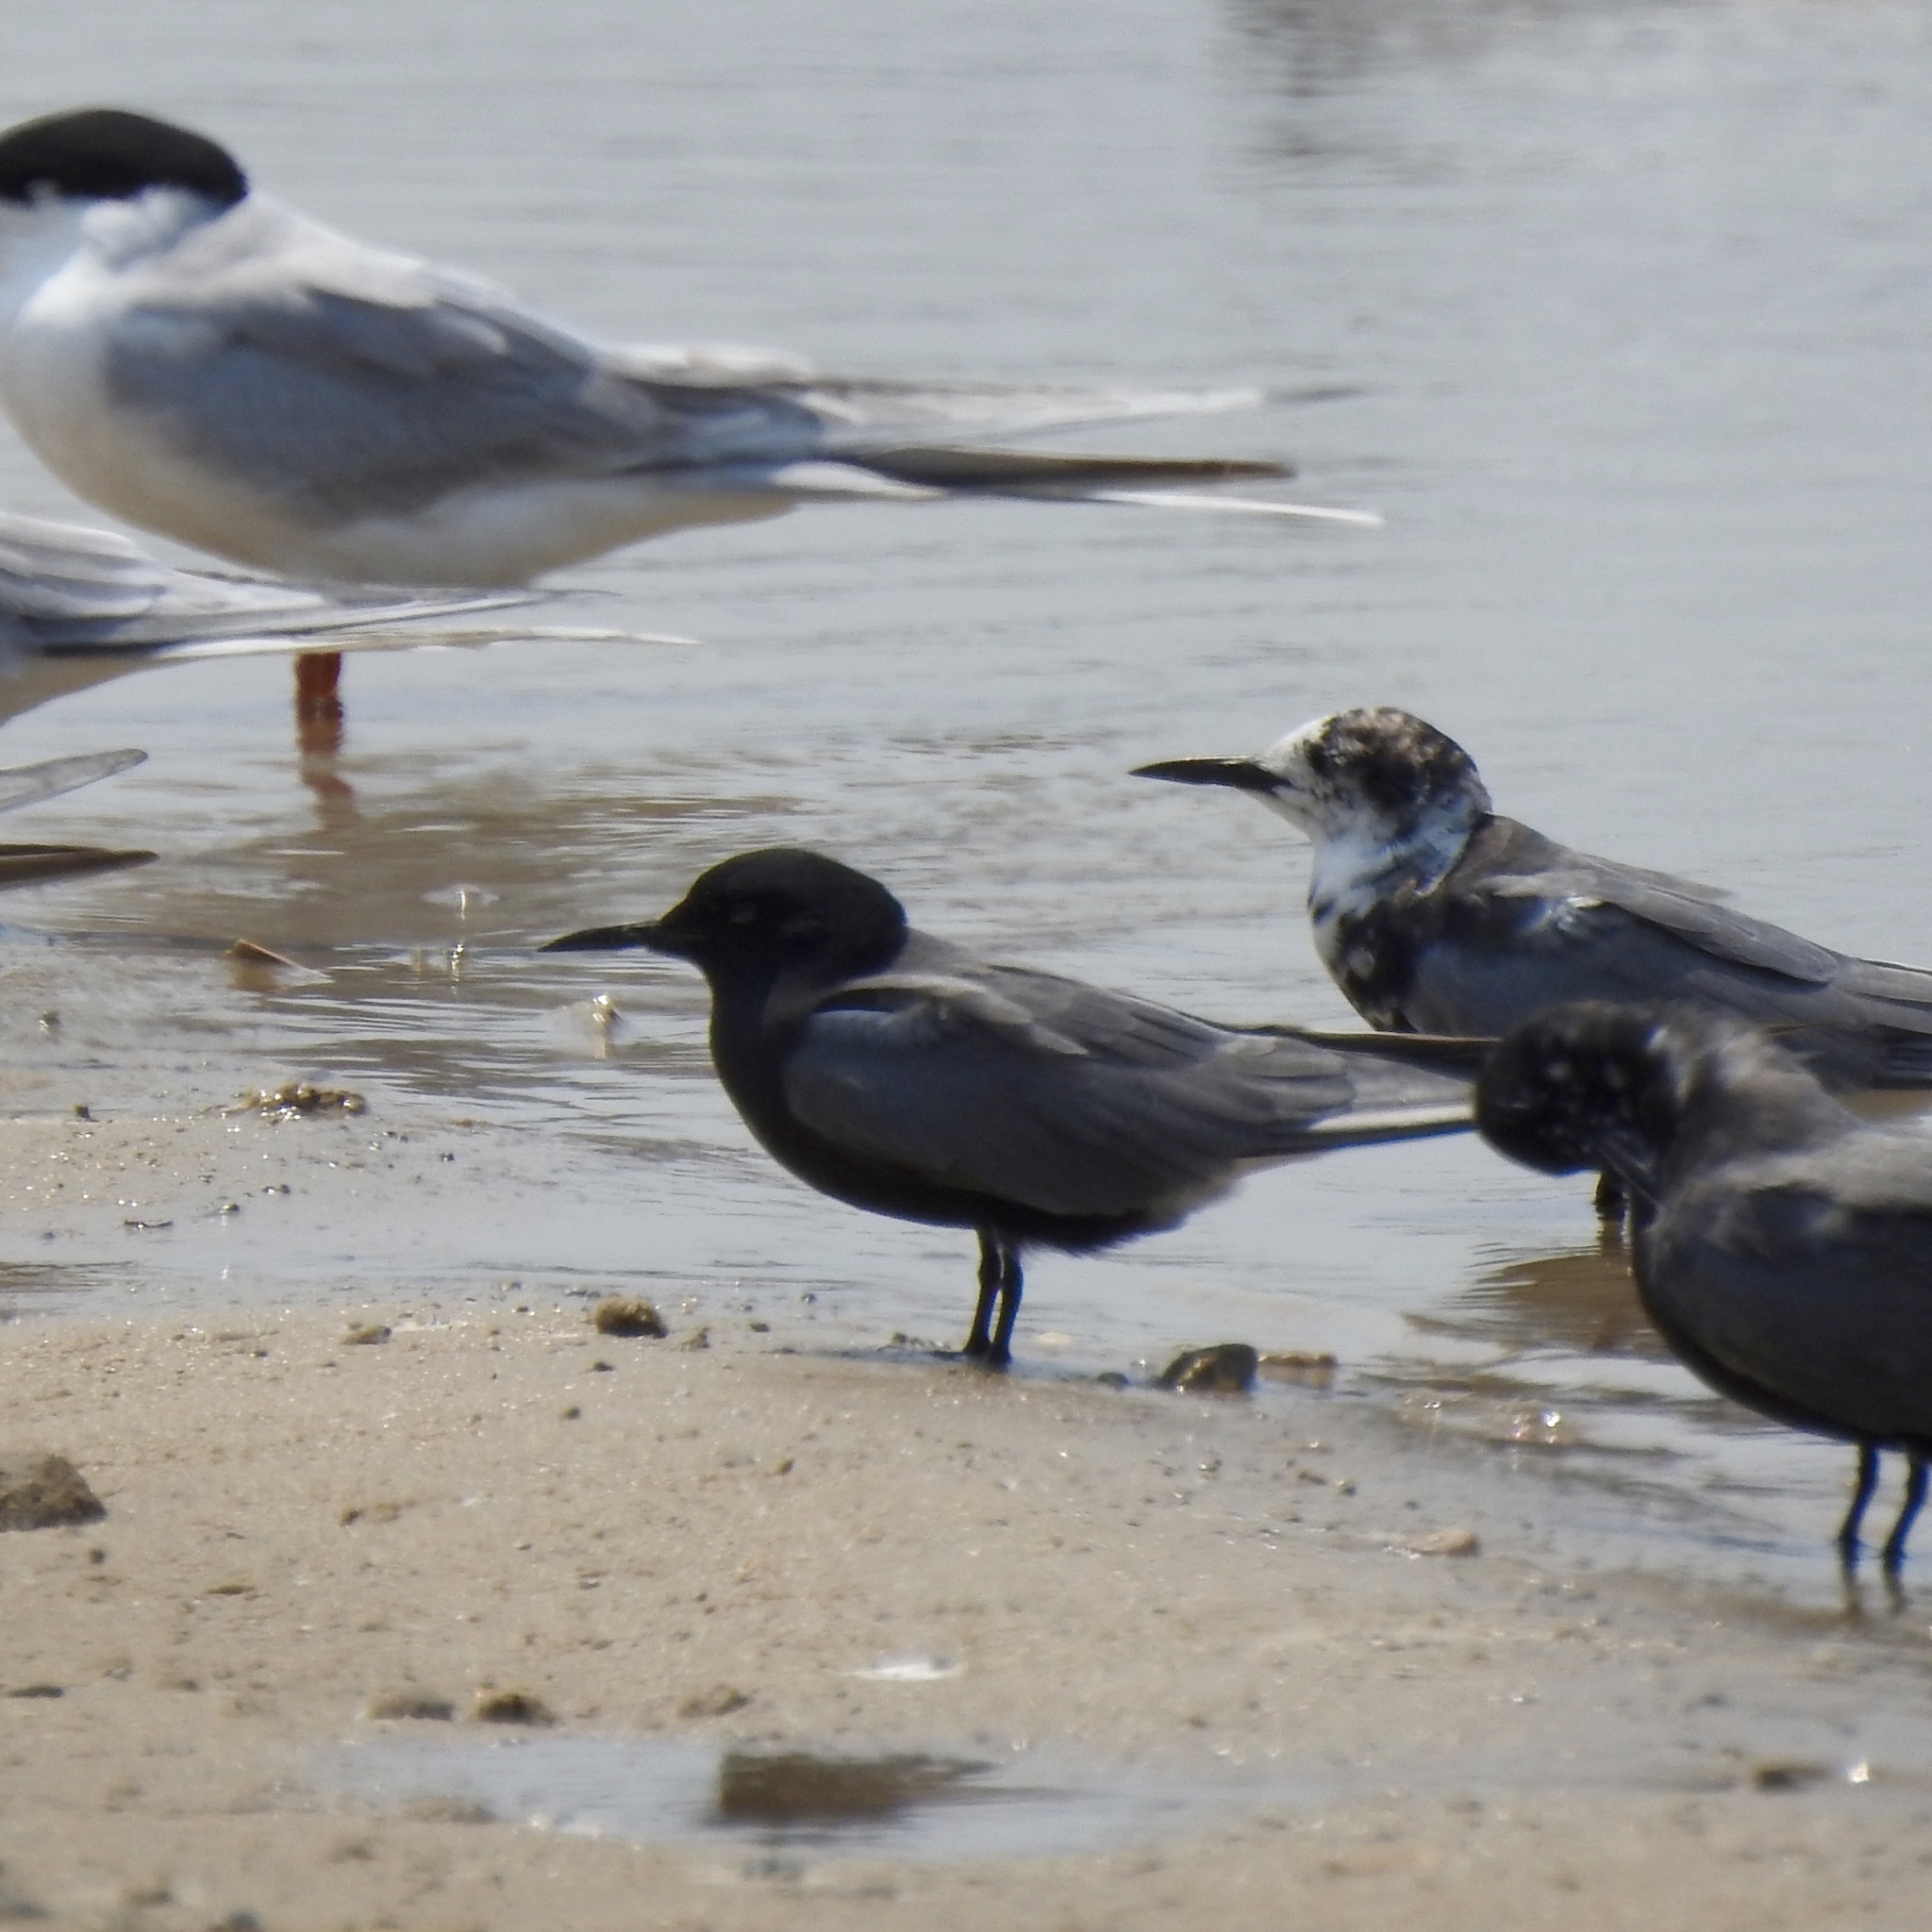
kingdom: Animalia
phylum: Chordata
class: Aves
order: Charadriiformes
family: Laridae
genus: Chlidonias
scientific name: Chlidonias niger
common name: Black tern
